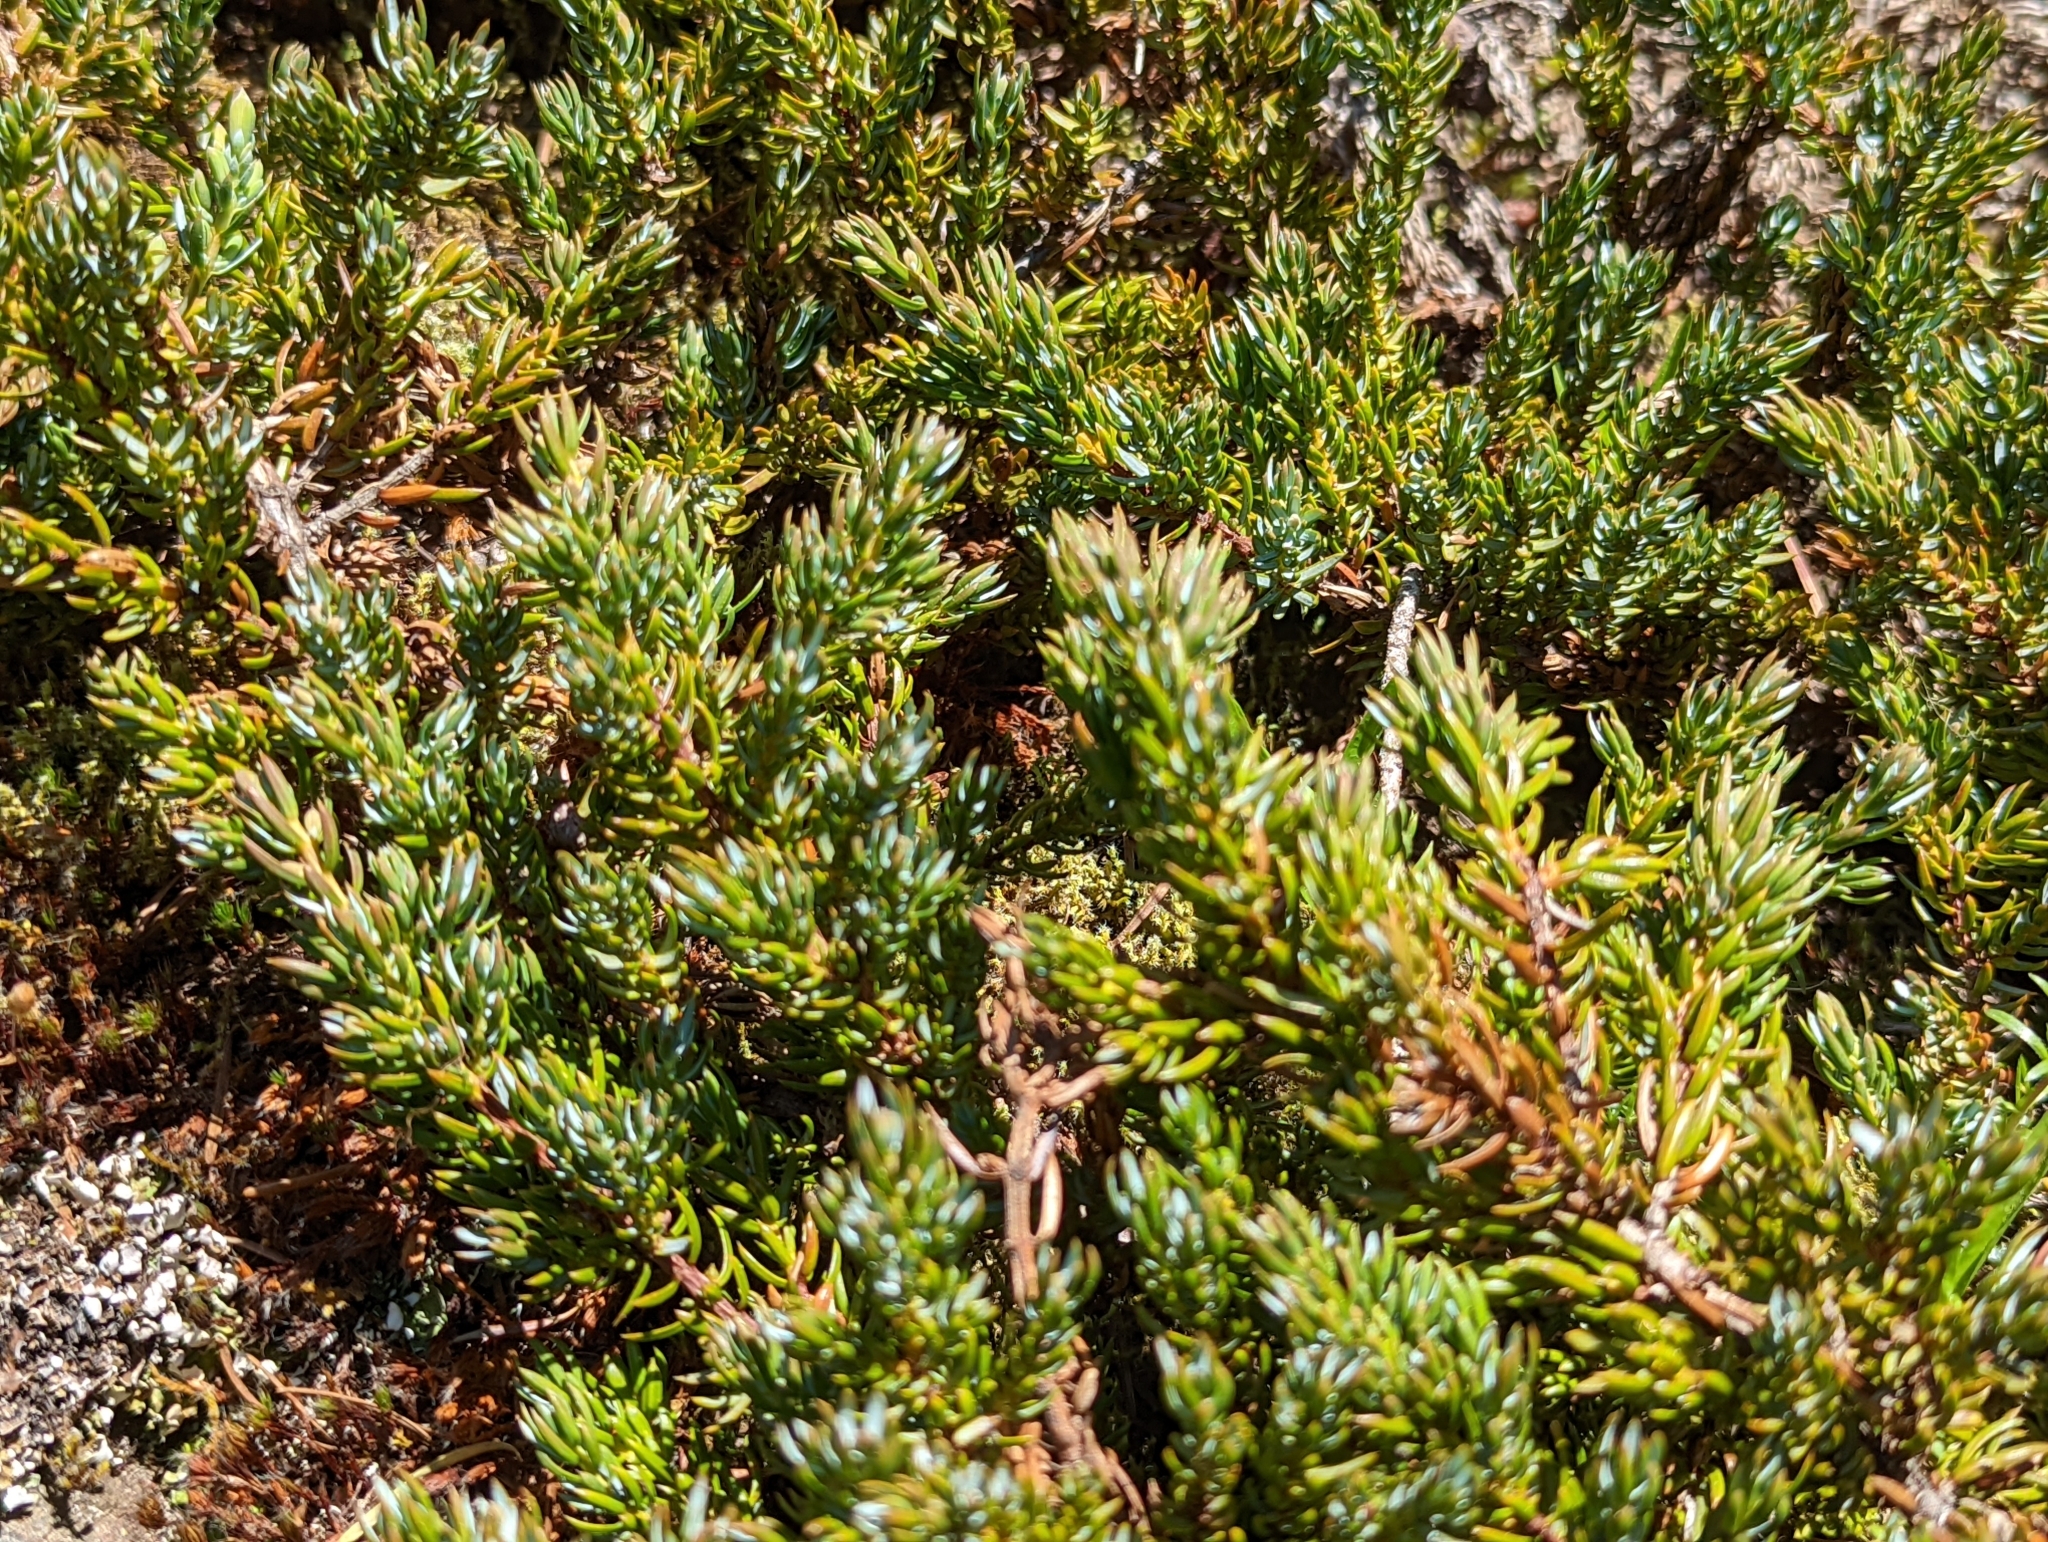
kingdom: Plantae
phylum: Tracheophyta
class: Pinopsida
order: Pinales
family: Cupressaceae
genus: Juniperus
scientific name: Juniperus communis
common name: Common juniper
